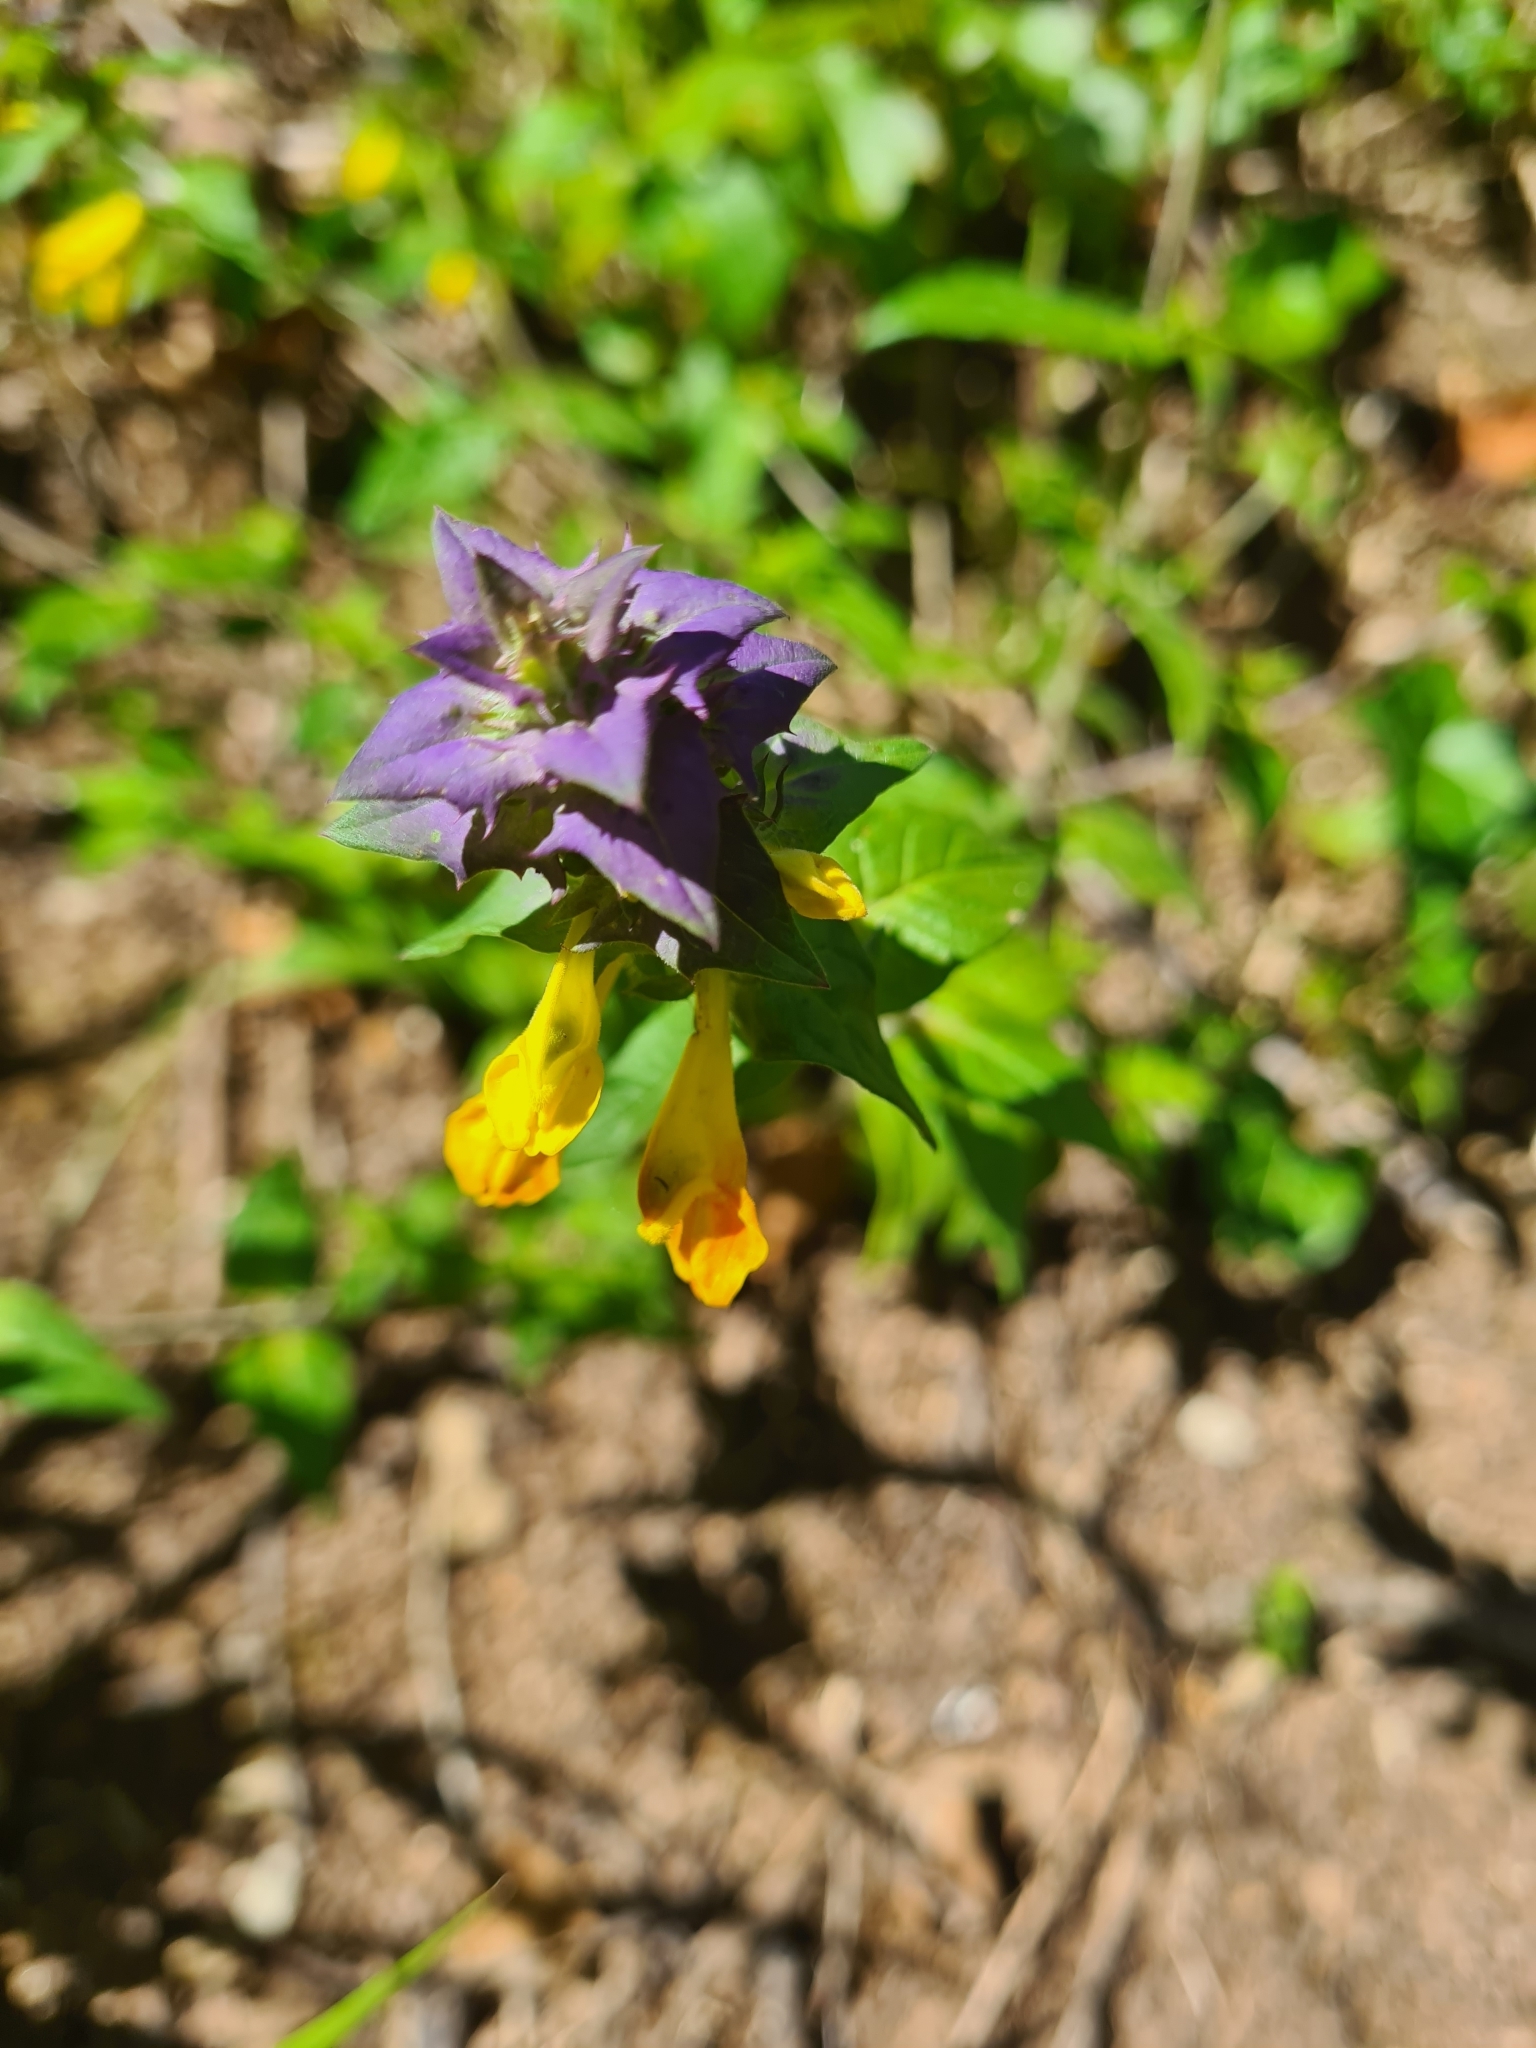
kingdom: Plantae
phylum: Tracheophyta
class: Magnoliopsida
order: Lamiales
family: Orobanchaceae
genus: Melampyrum
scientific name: Melampyrum nemorosum
